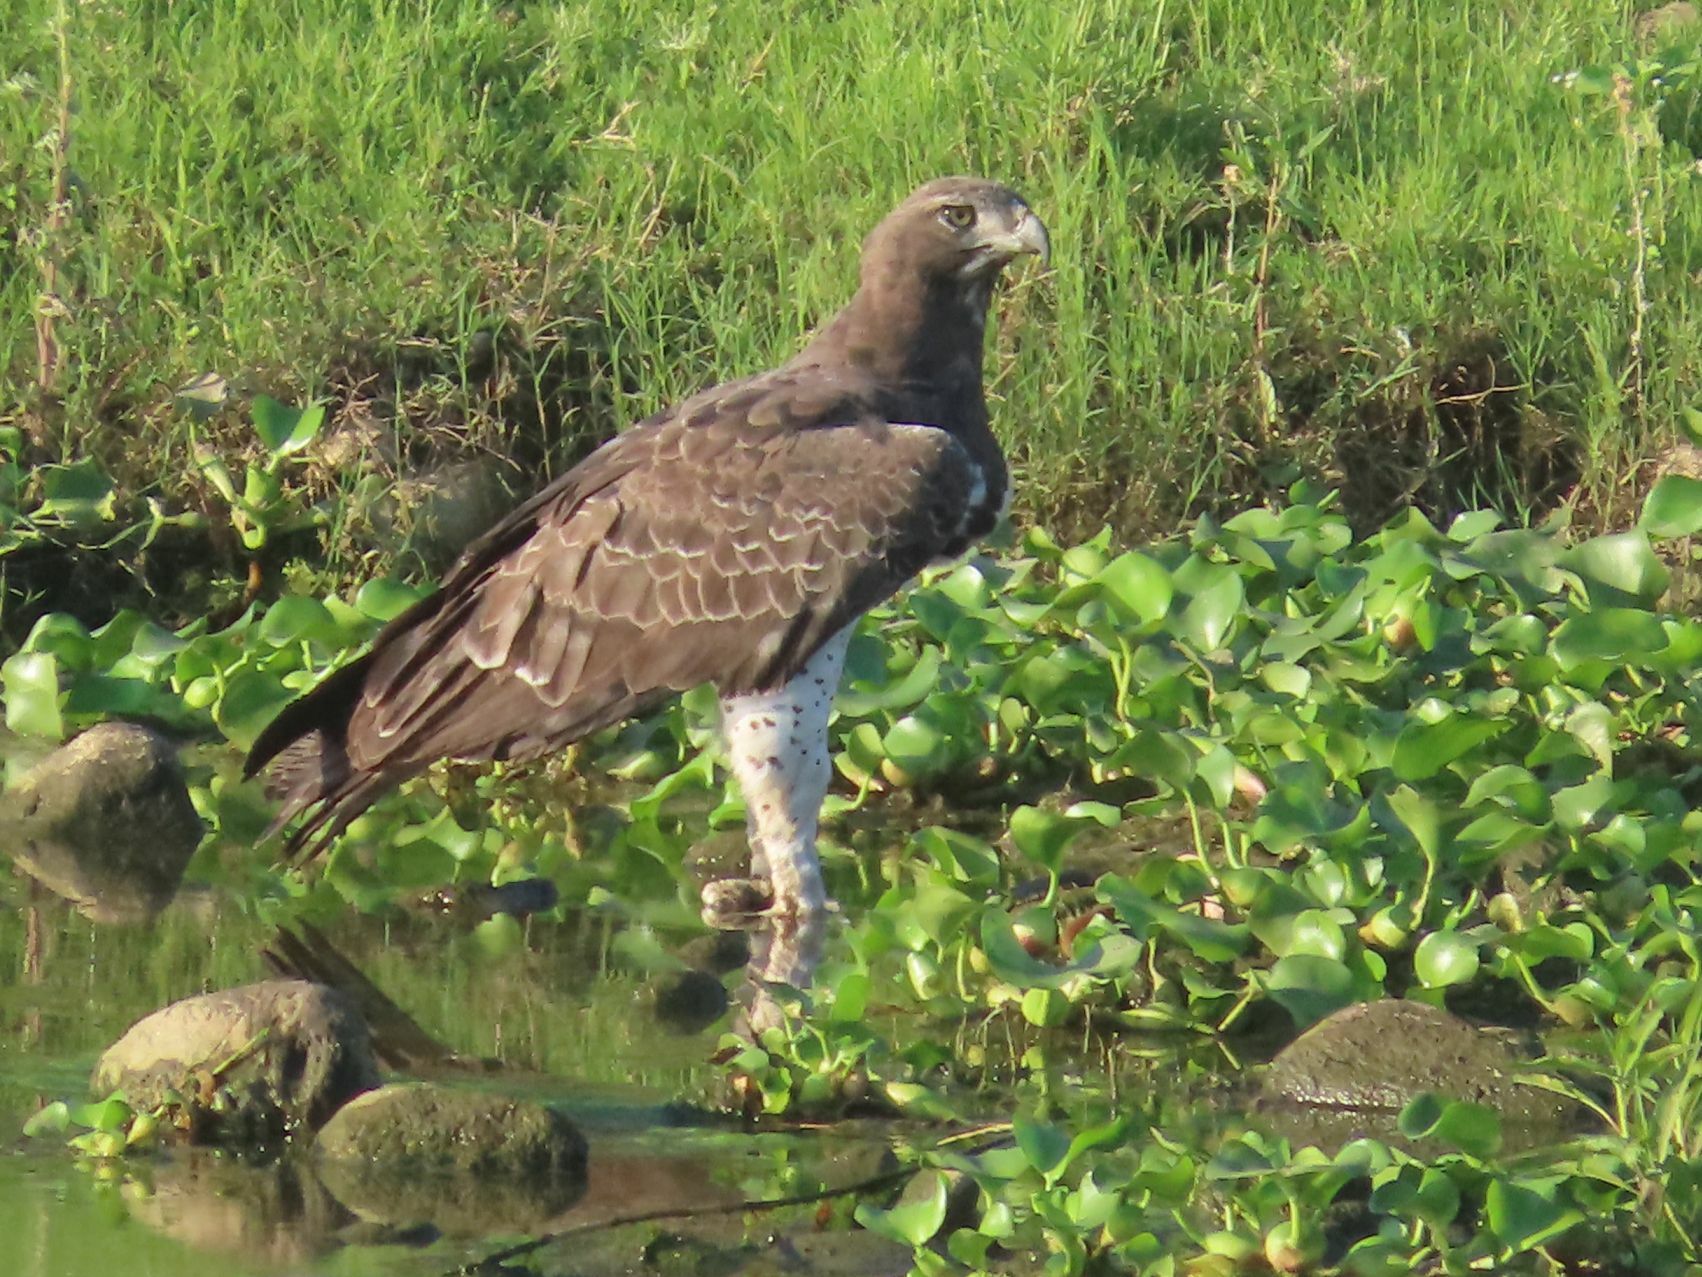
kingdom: Animalia
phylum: Chordata
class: Aves
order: Accipitriformes
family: Accipitridae
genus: Polemaetus
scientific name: Polemaetus bellicosus
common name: Martial eagle
